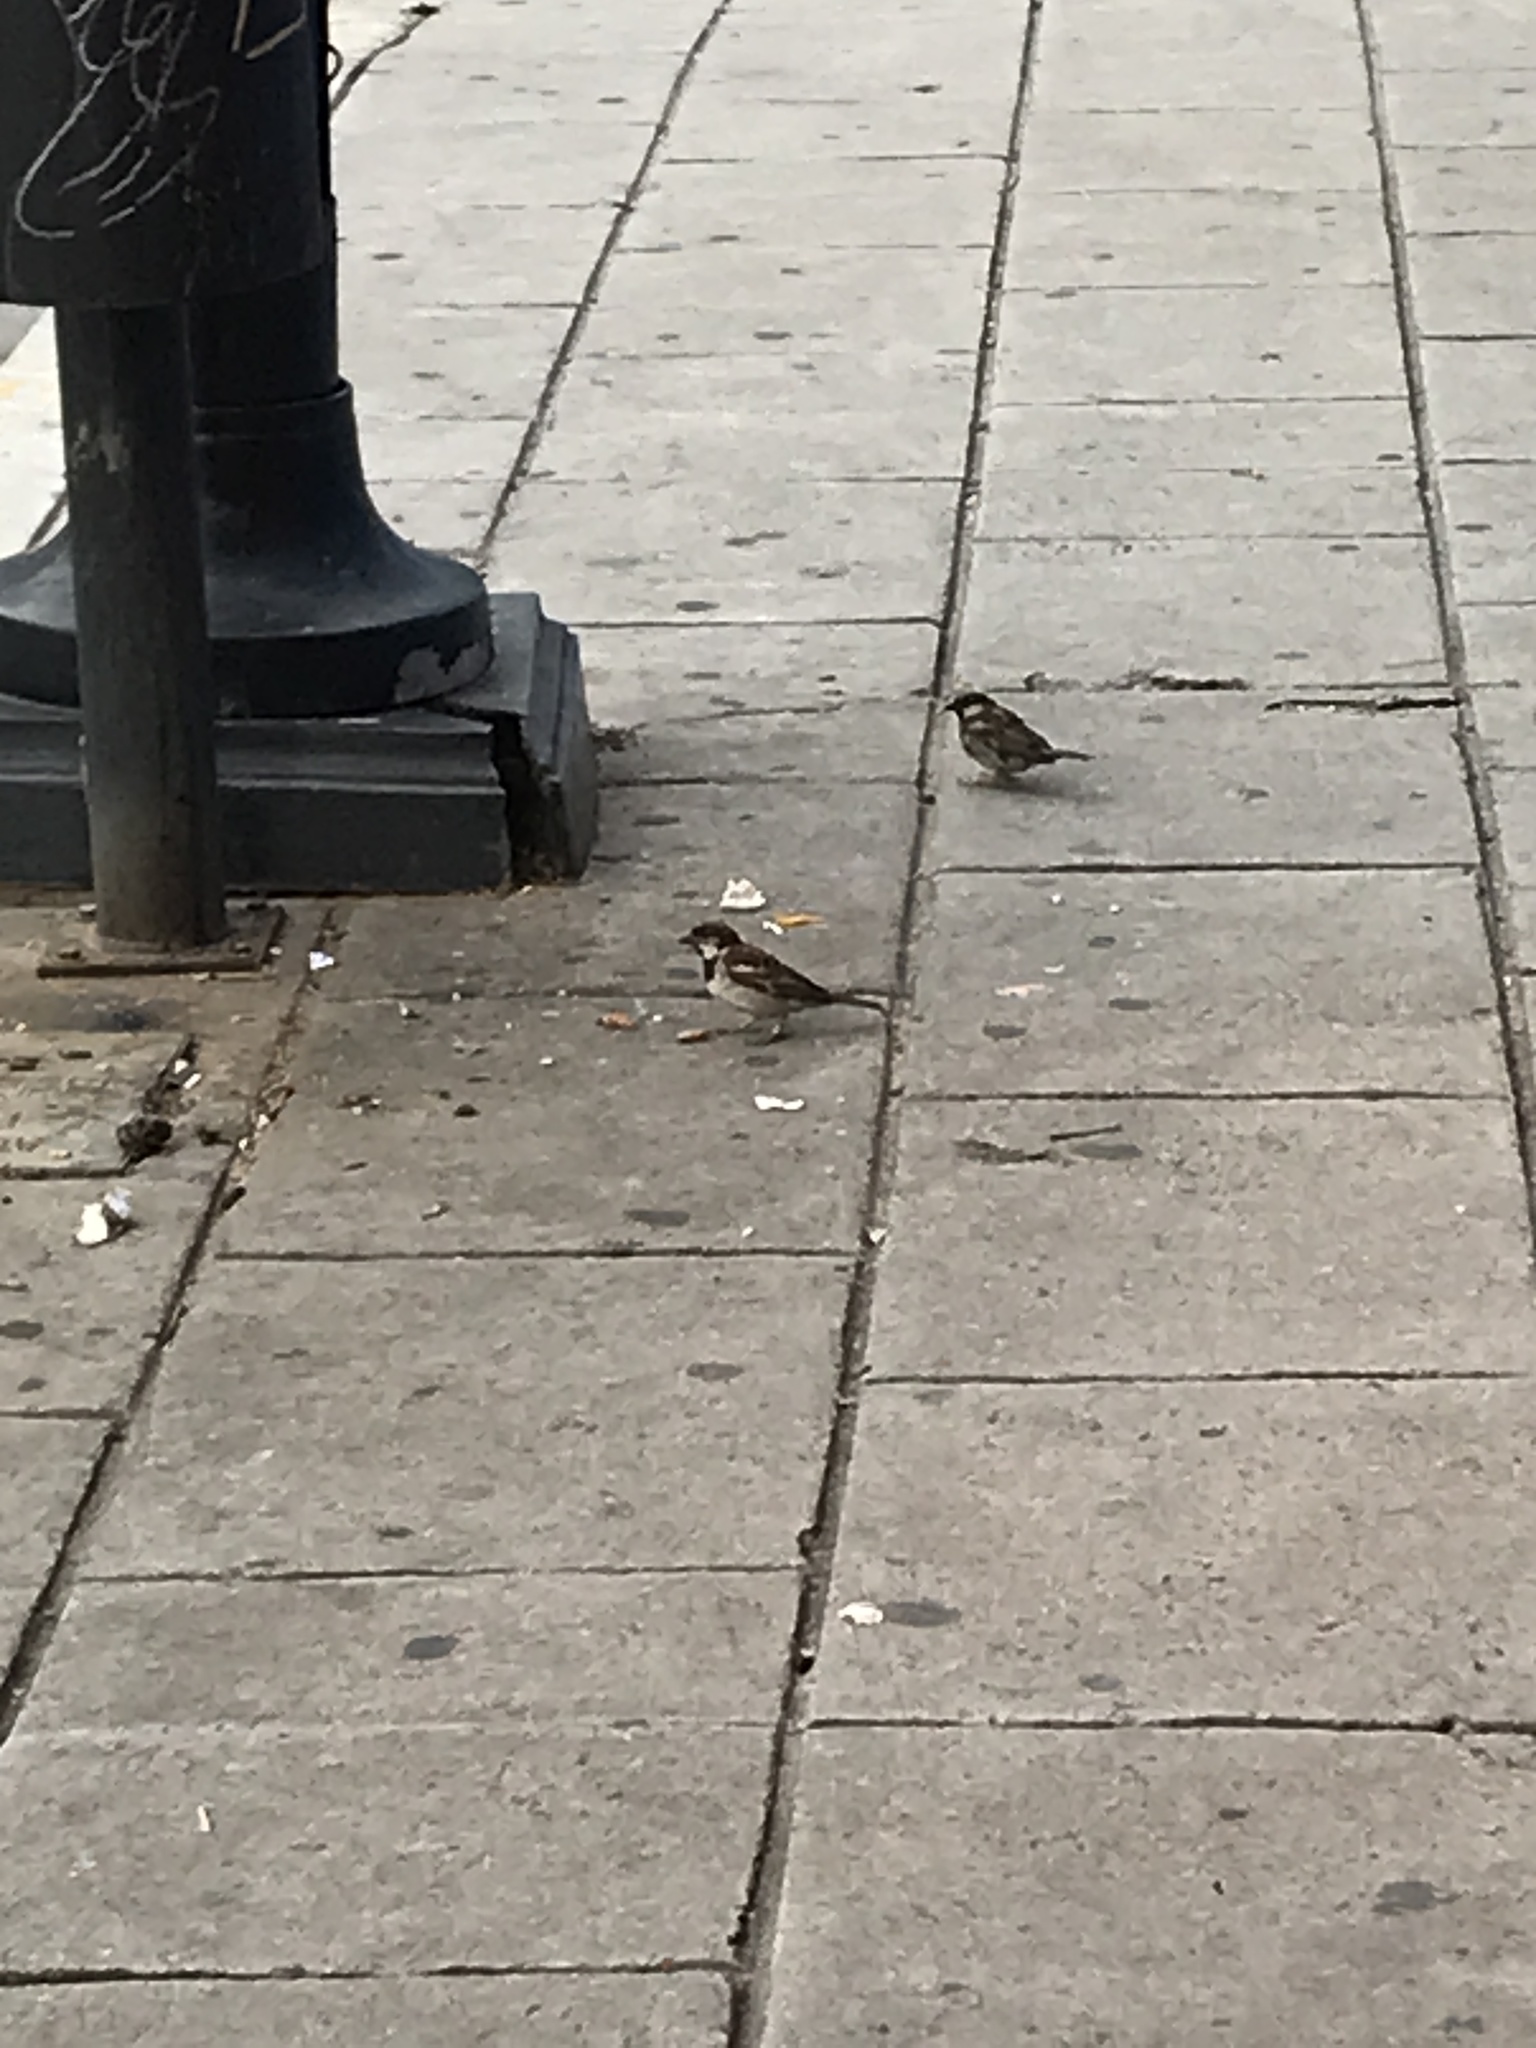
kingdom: Animalia
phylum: Chordata
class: Aves
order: Passeriformes
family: Passeridae
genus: Passer
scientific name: Passer domesticus
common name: House sparrow
